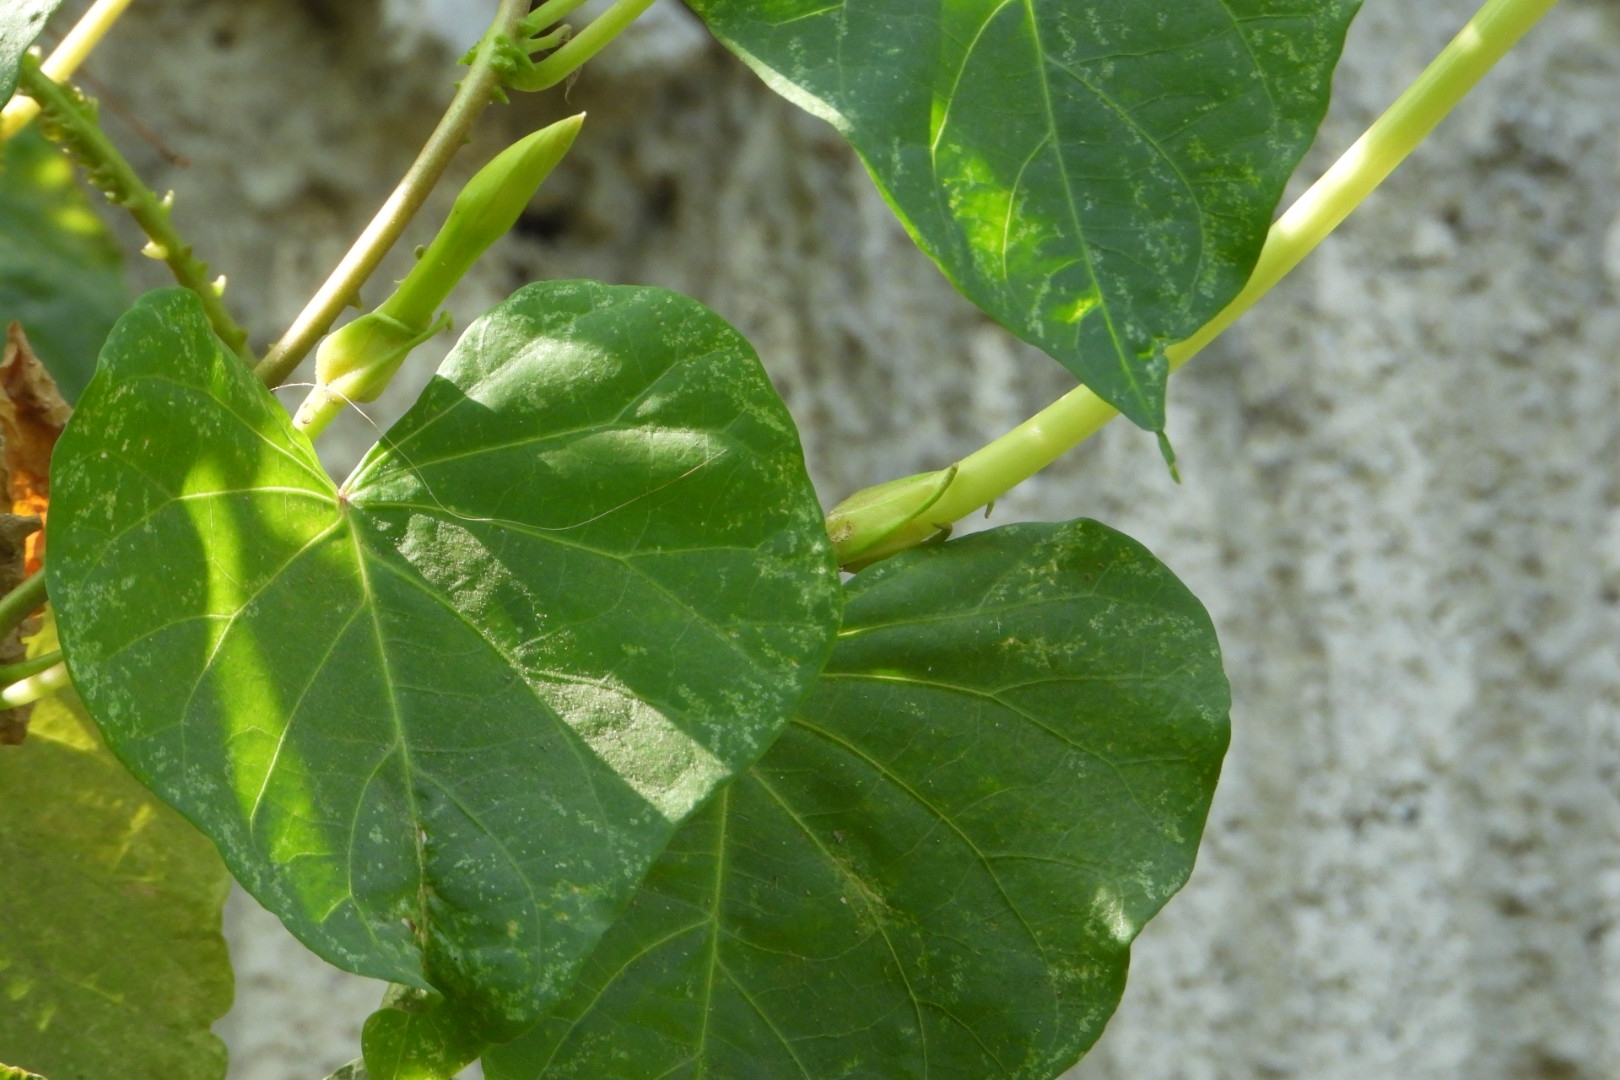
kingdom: Plantae
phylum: Tracheophyta
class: Magnoliopsida
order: Solanales
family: Convolvulaceae
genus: Ipomoea
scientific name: Ipomoea alba
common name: Moonflower
